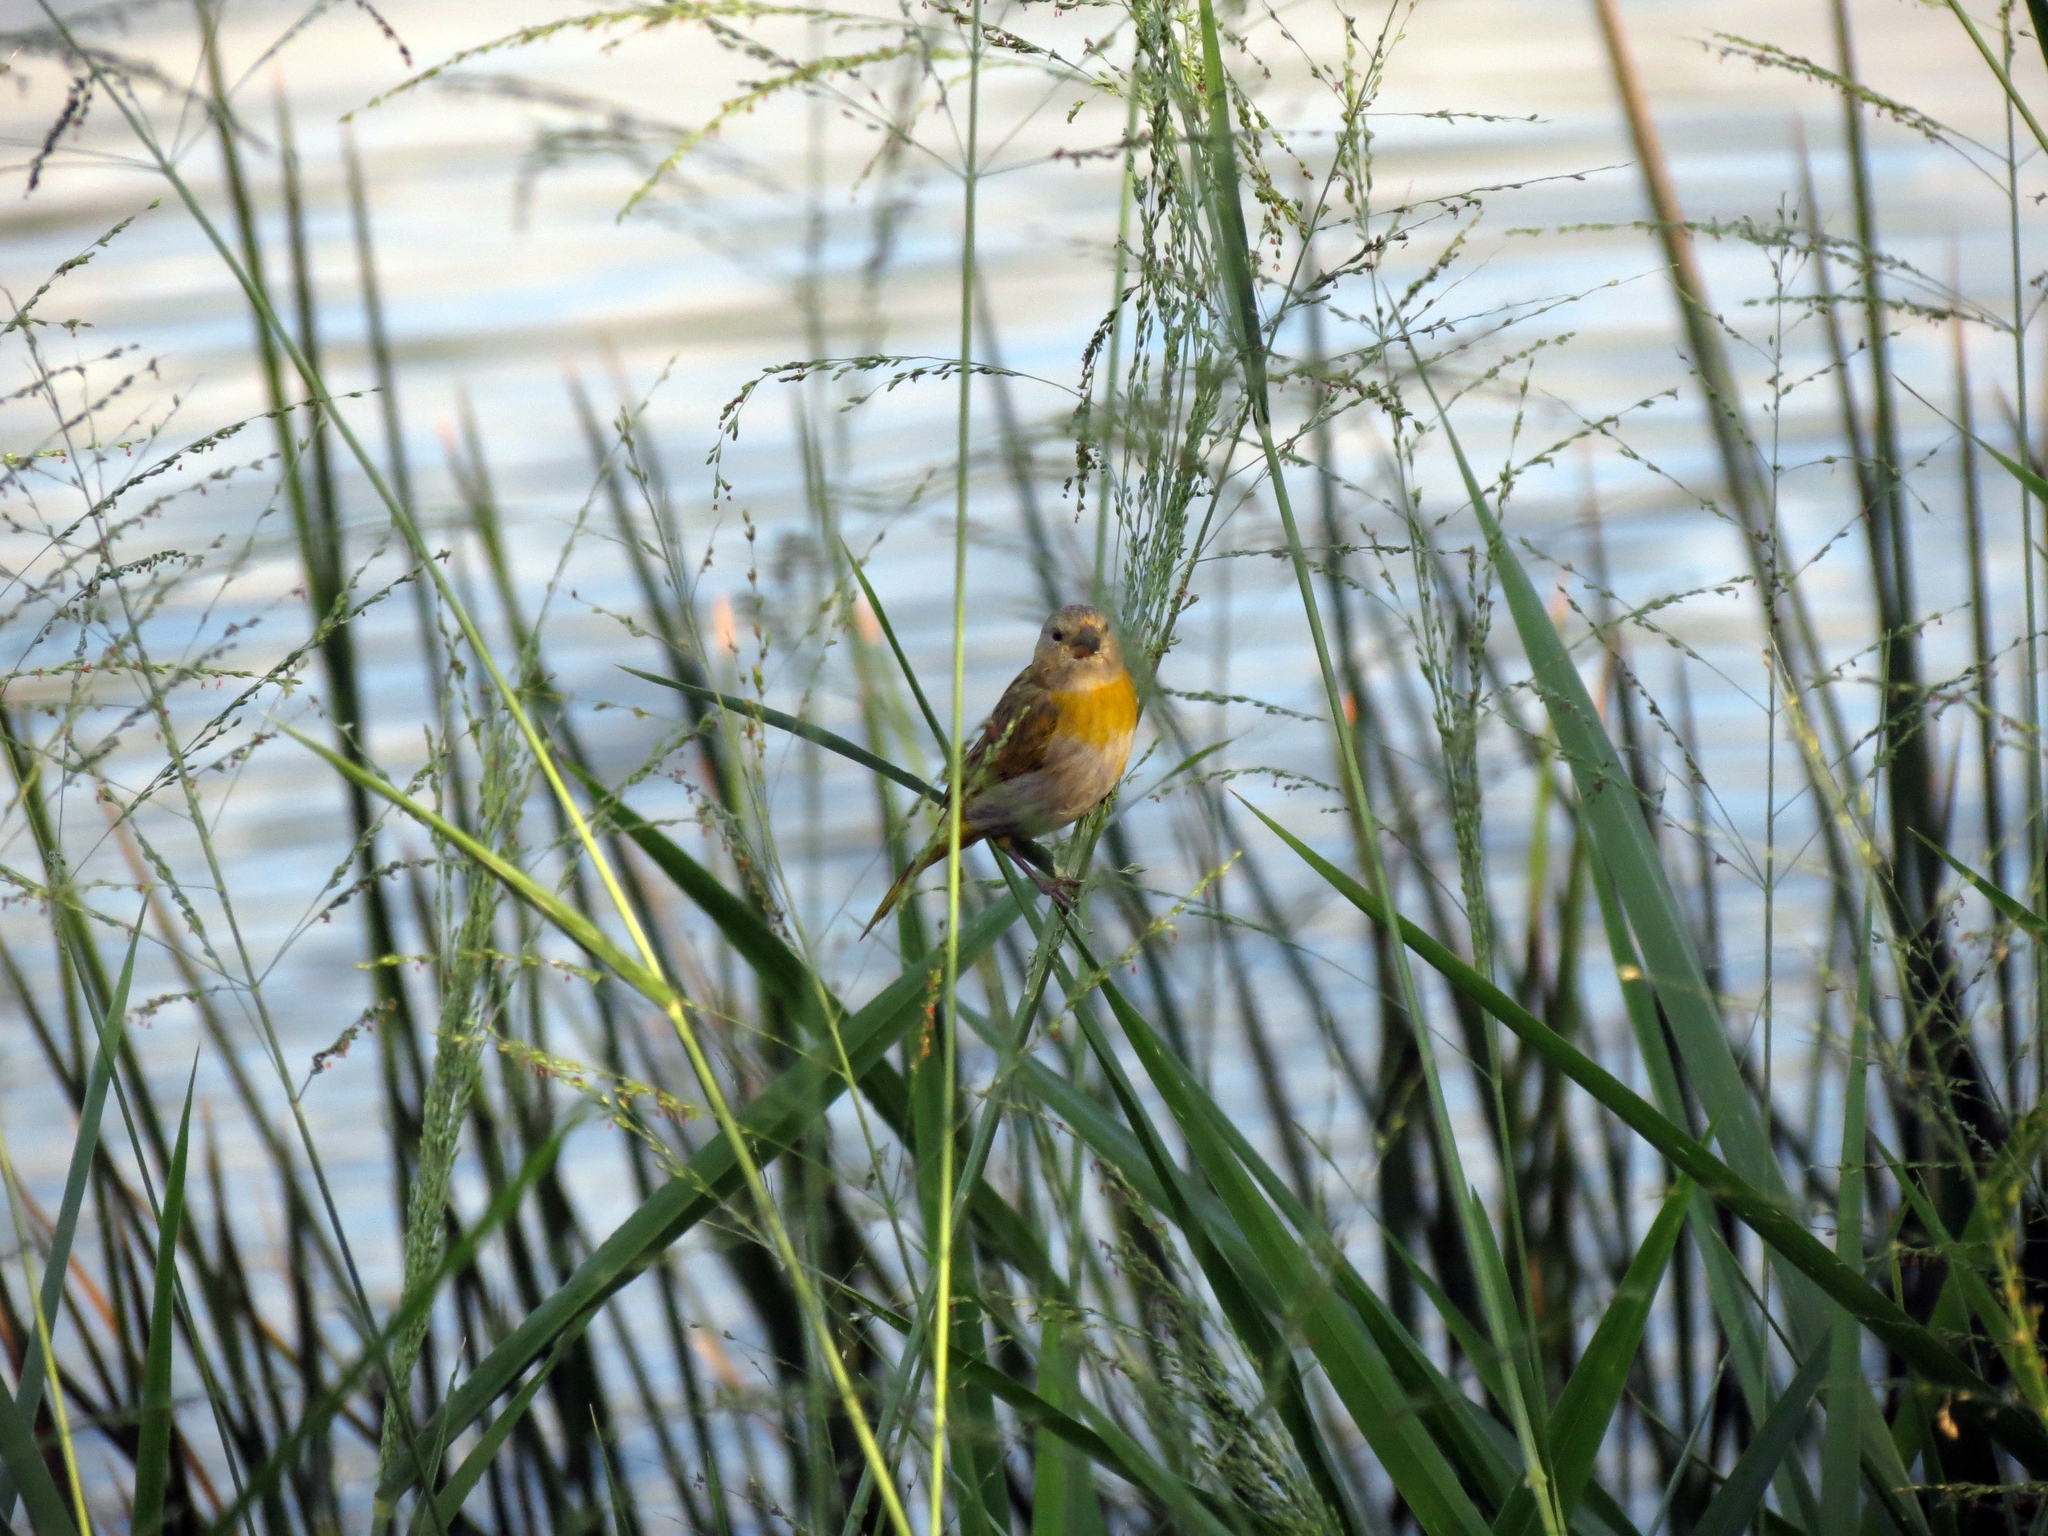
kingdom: Animalia
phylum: Chordata
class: Aves
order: Passeriformes
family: Thraupidae
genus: Sicalis
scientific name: Sicalis flaveola
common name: Saffron finch
